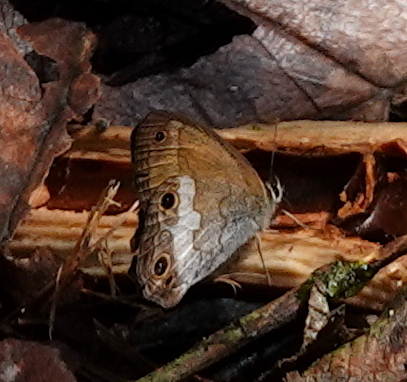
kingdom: Animalia
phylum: Arthropoda
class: Insecta
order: Lepidoptera
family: Nymphalidae
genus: Graphita
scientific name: Graphita griphe
